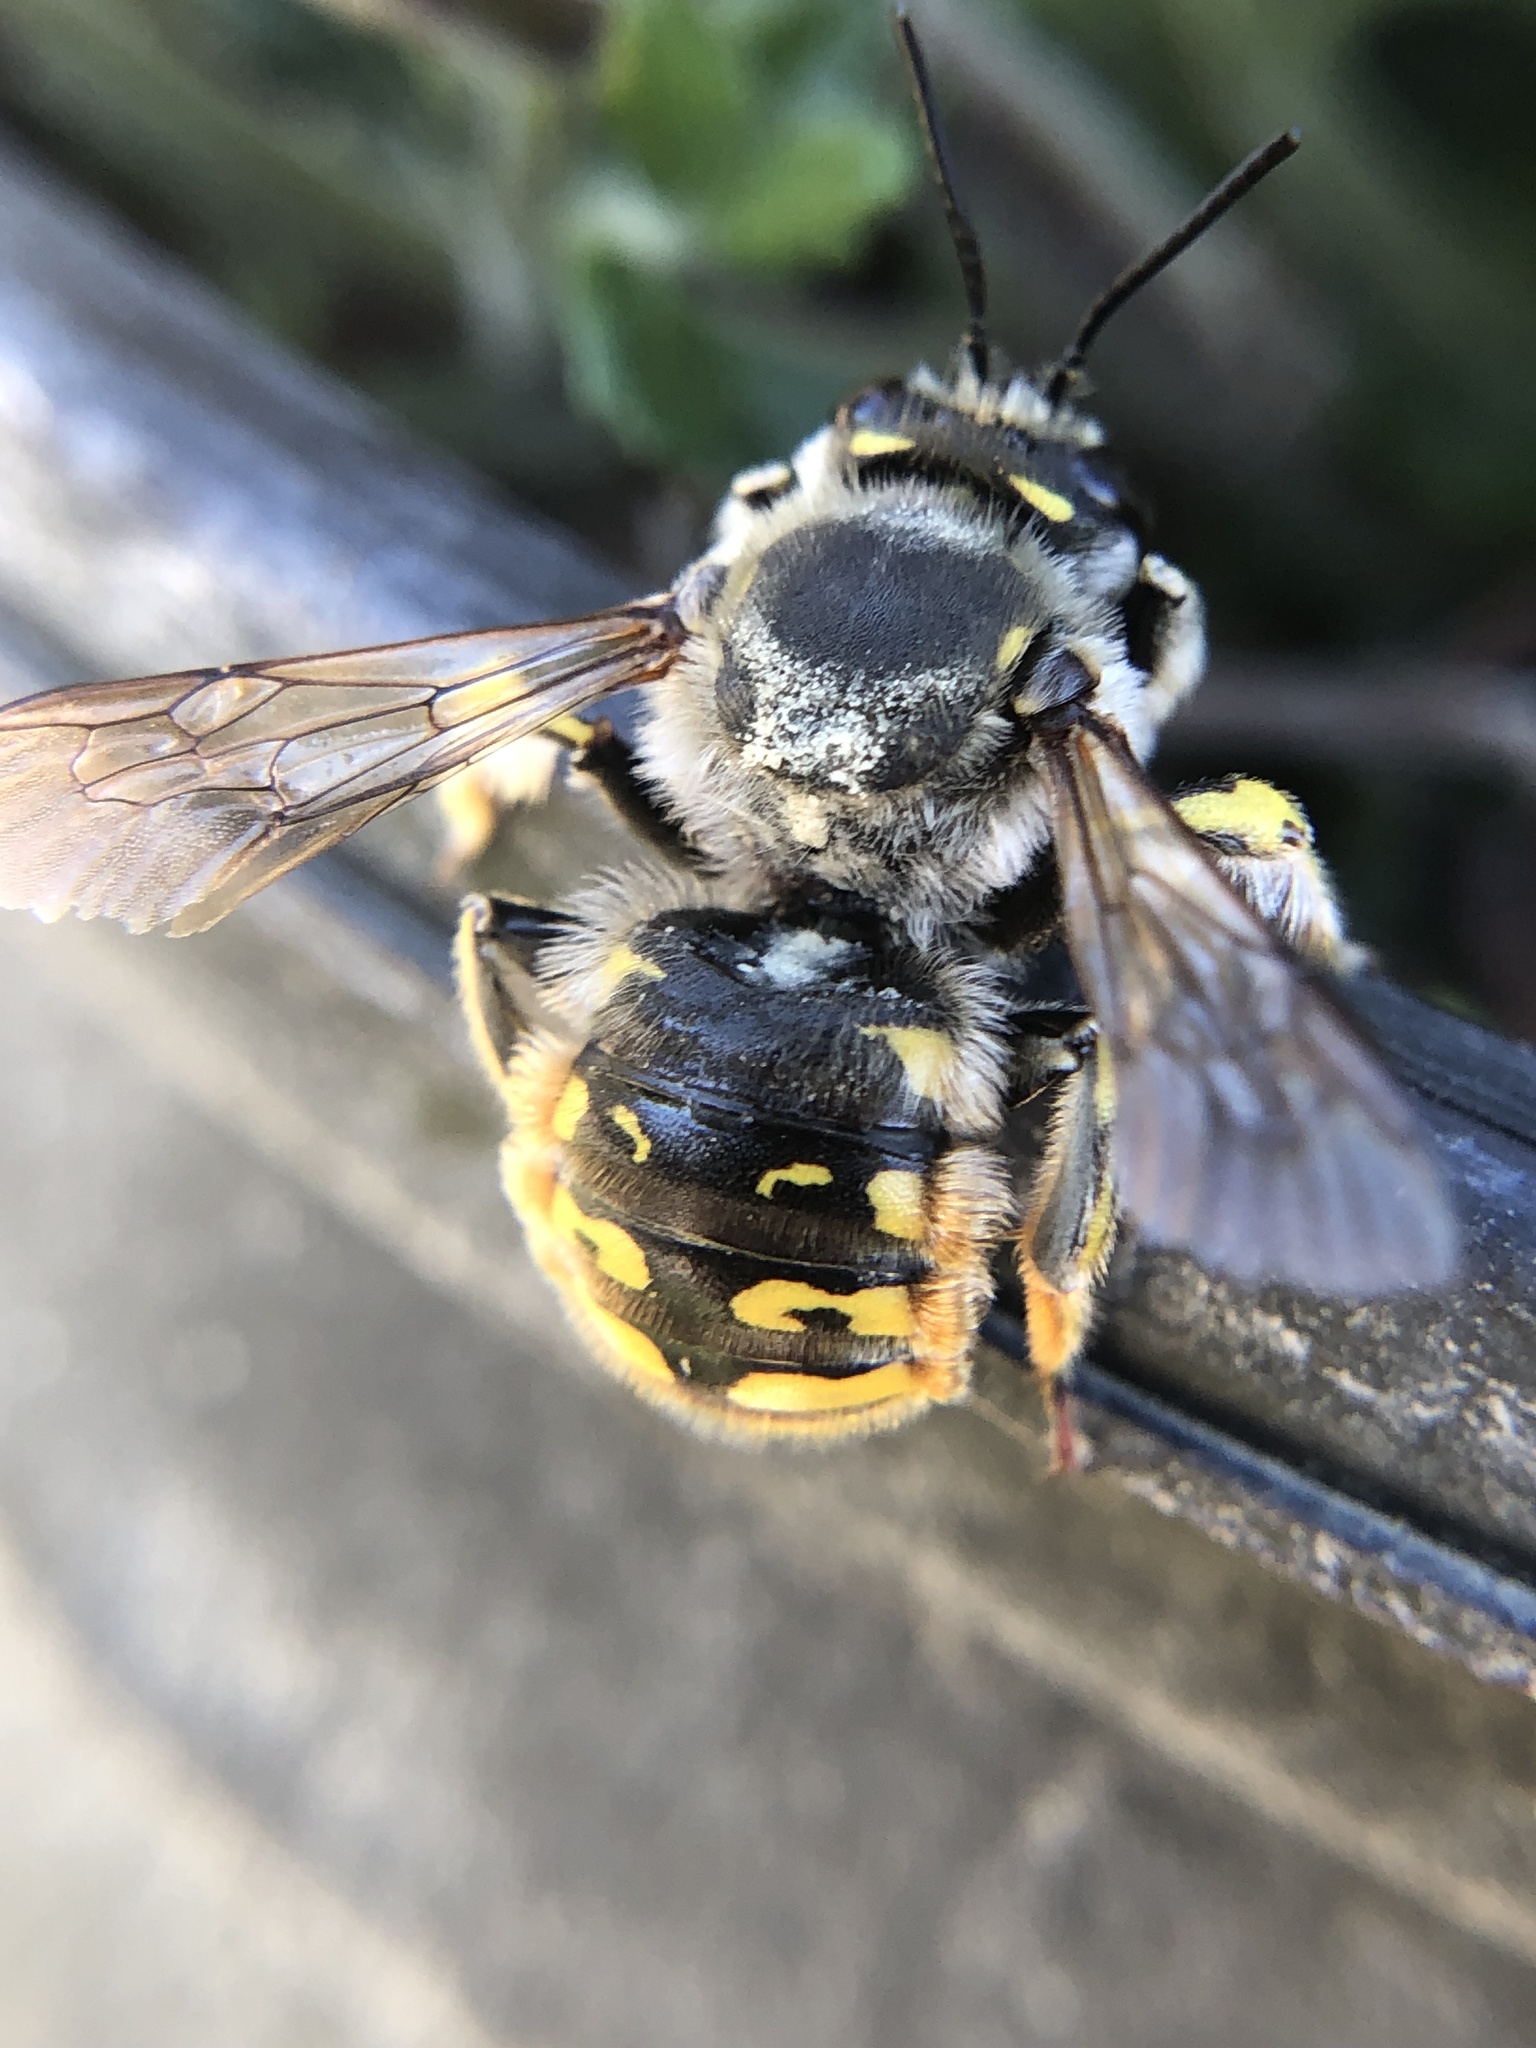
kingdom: Animalia
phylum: Arthropoda
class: Insecta
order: Hymenoptera
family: Megachilidae
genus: Anthidium
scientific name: Anthidium manicatum
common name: Wool carder bee
